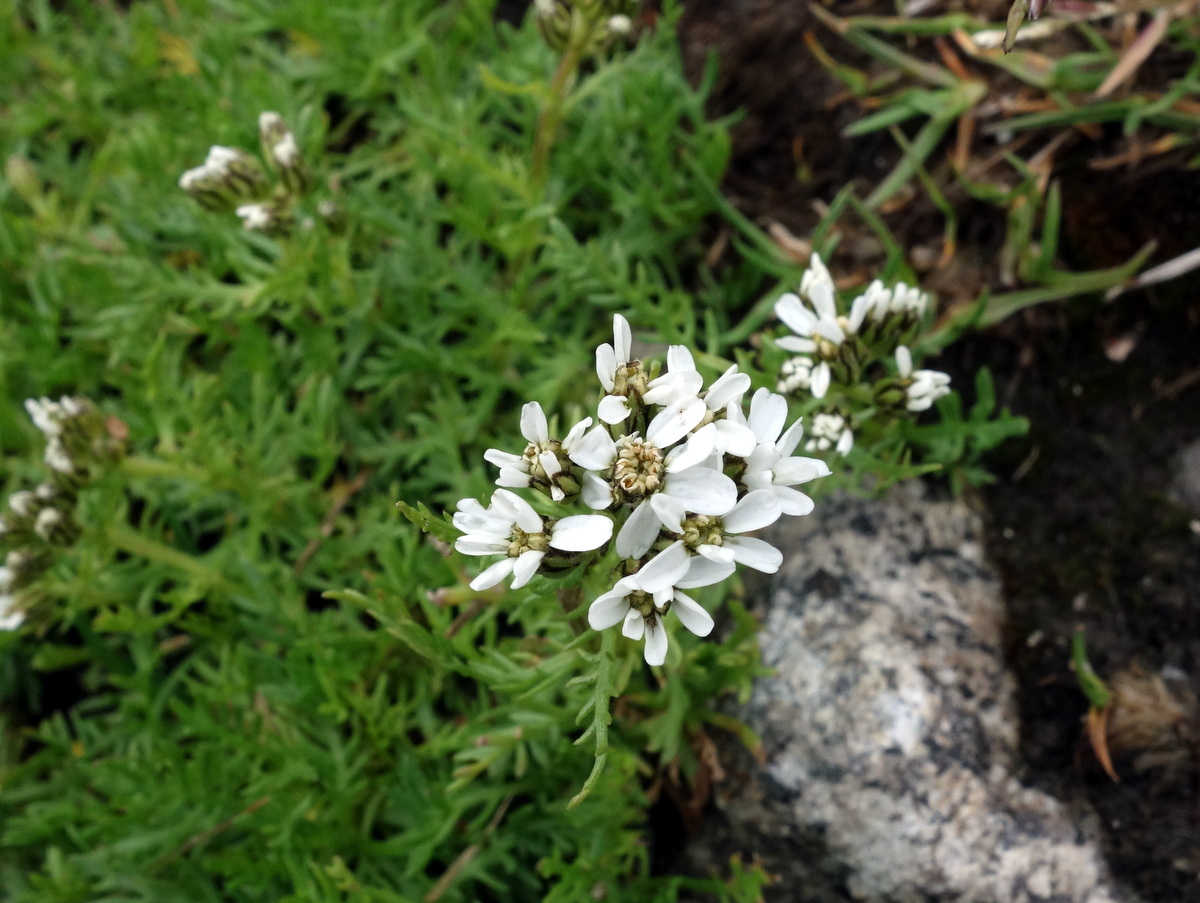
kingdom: Plantae
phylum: Tracheophyta
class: Magnoliopsida
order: Asterales
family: Asteraceae
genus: Achillea
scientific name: Achillea erba-rotta
